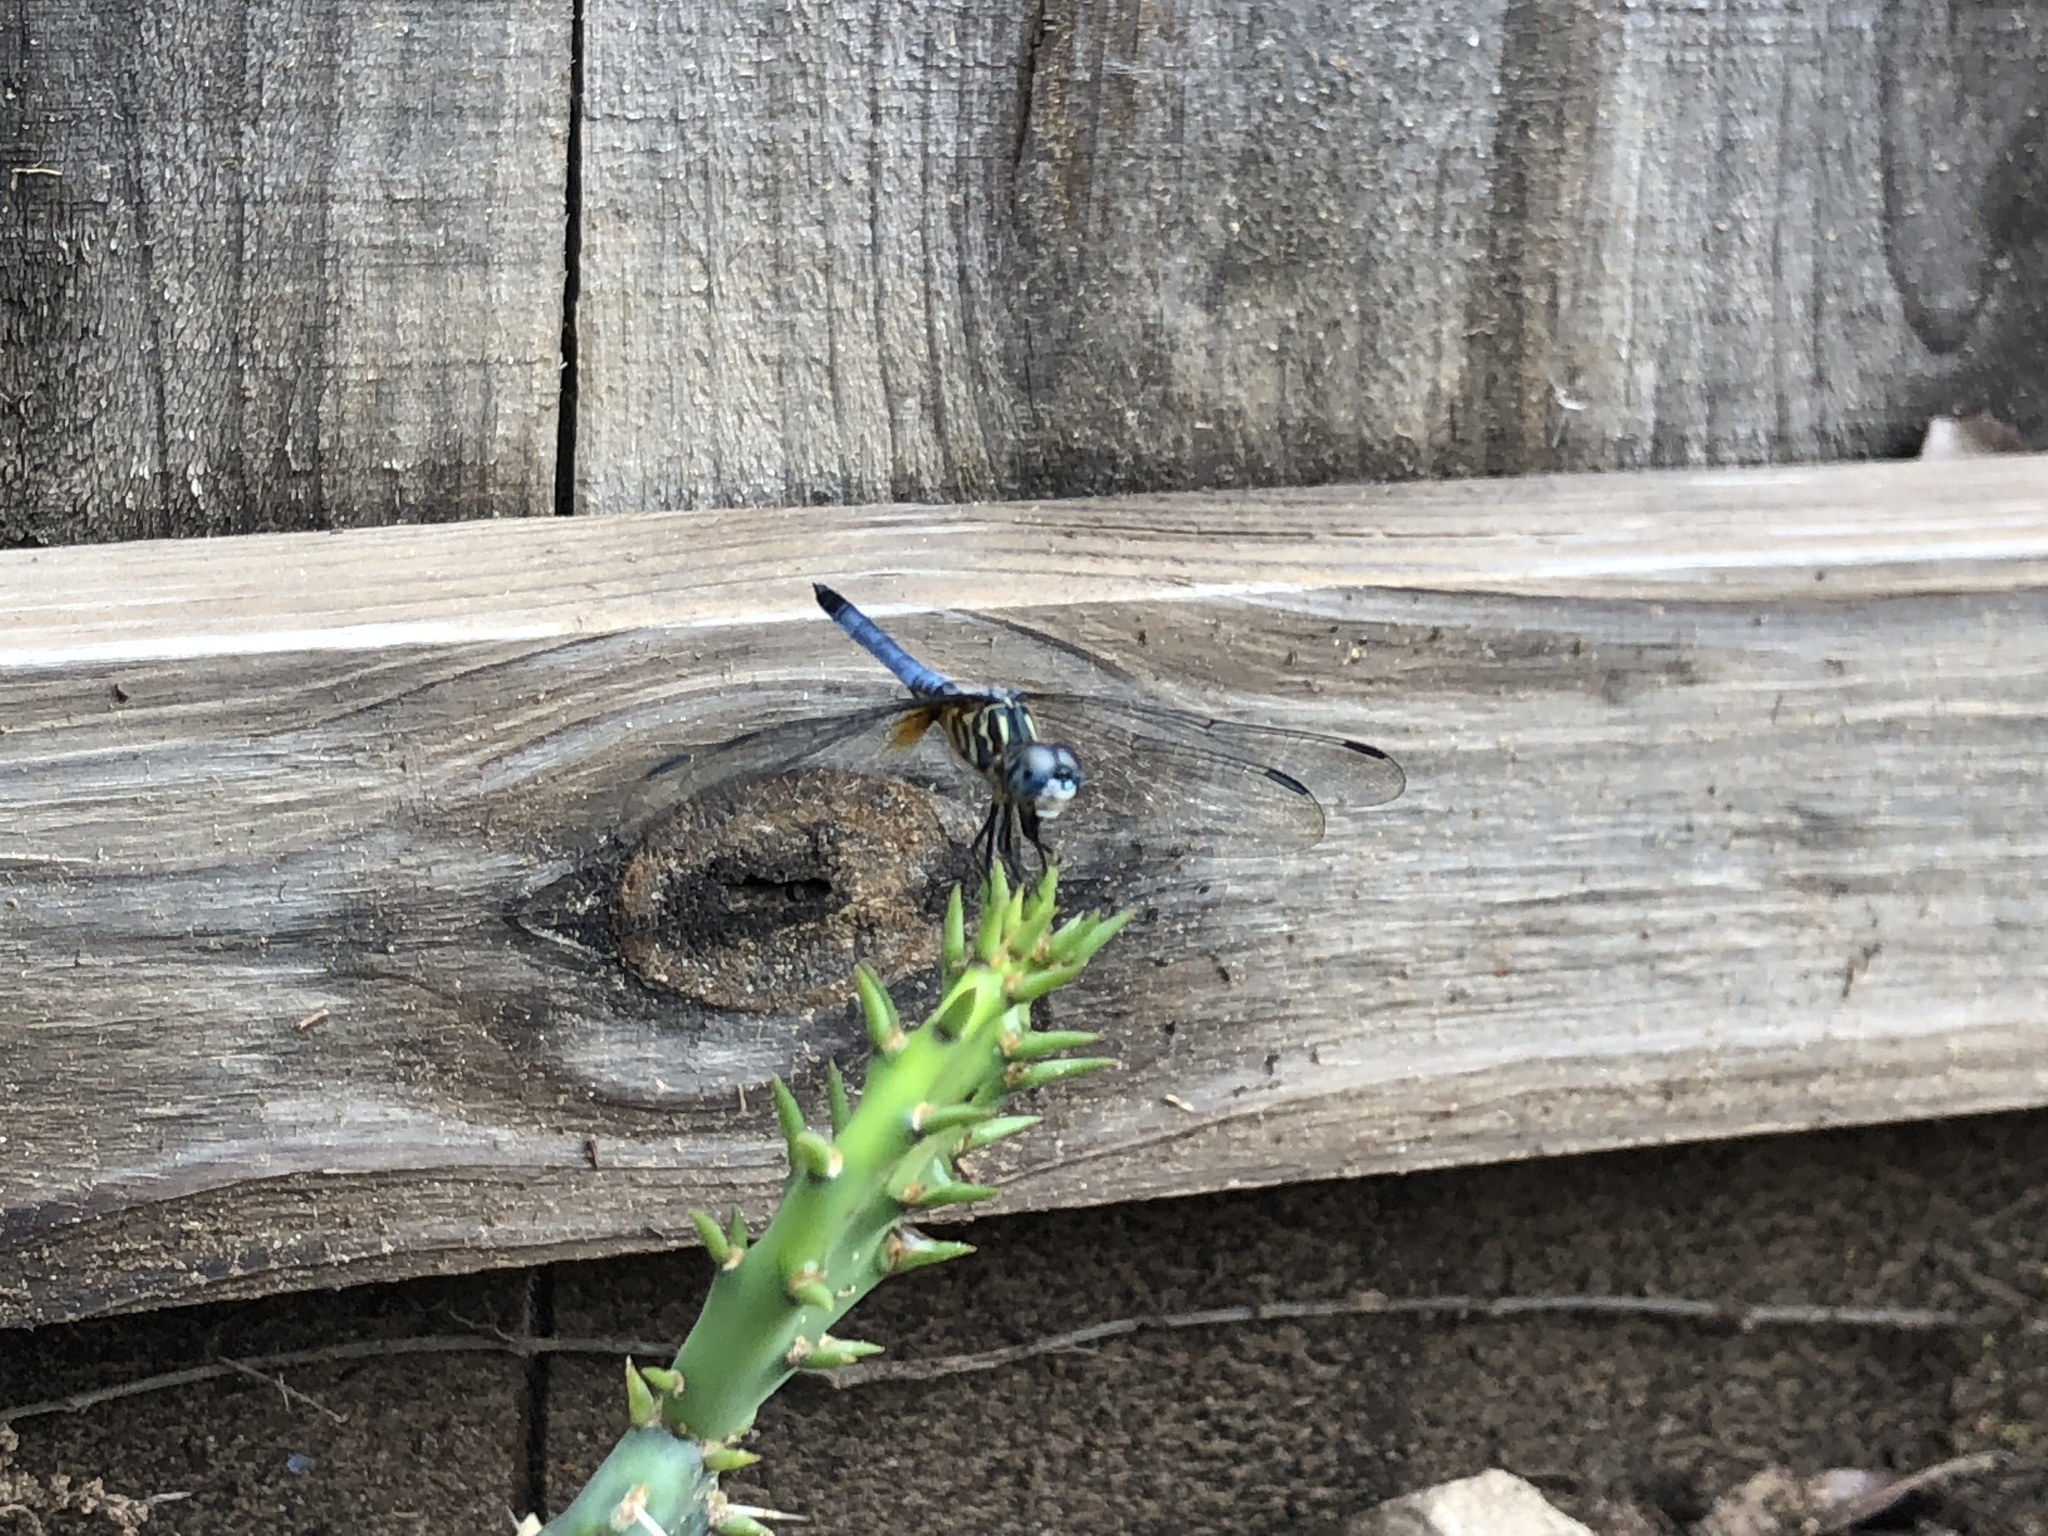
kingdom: Animalia
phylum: Arthropoda
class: Insecta
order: Odonata
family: Libellulidae
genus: Pachydiplax
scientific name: Pachydiplax longipennis
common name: Blue dasher
